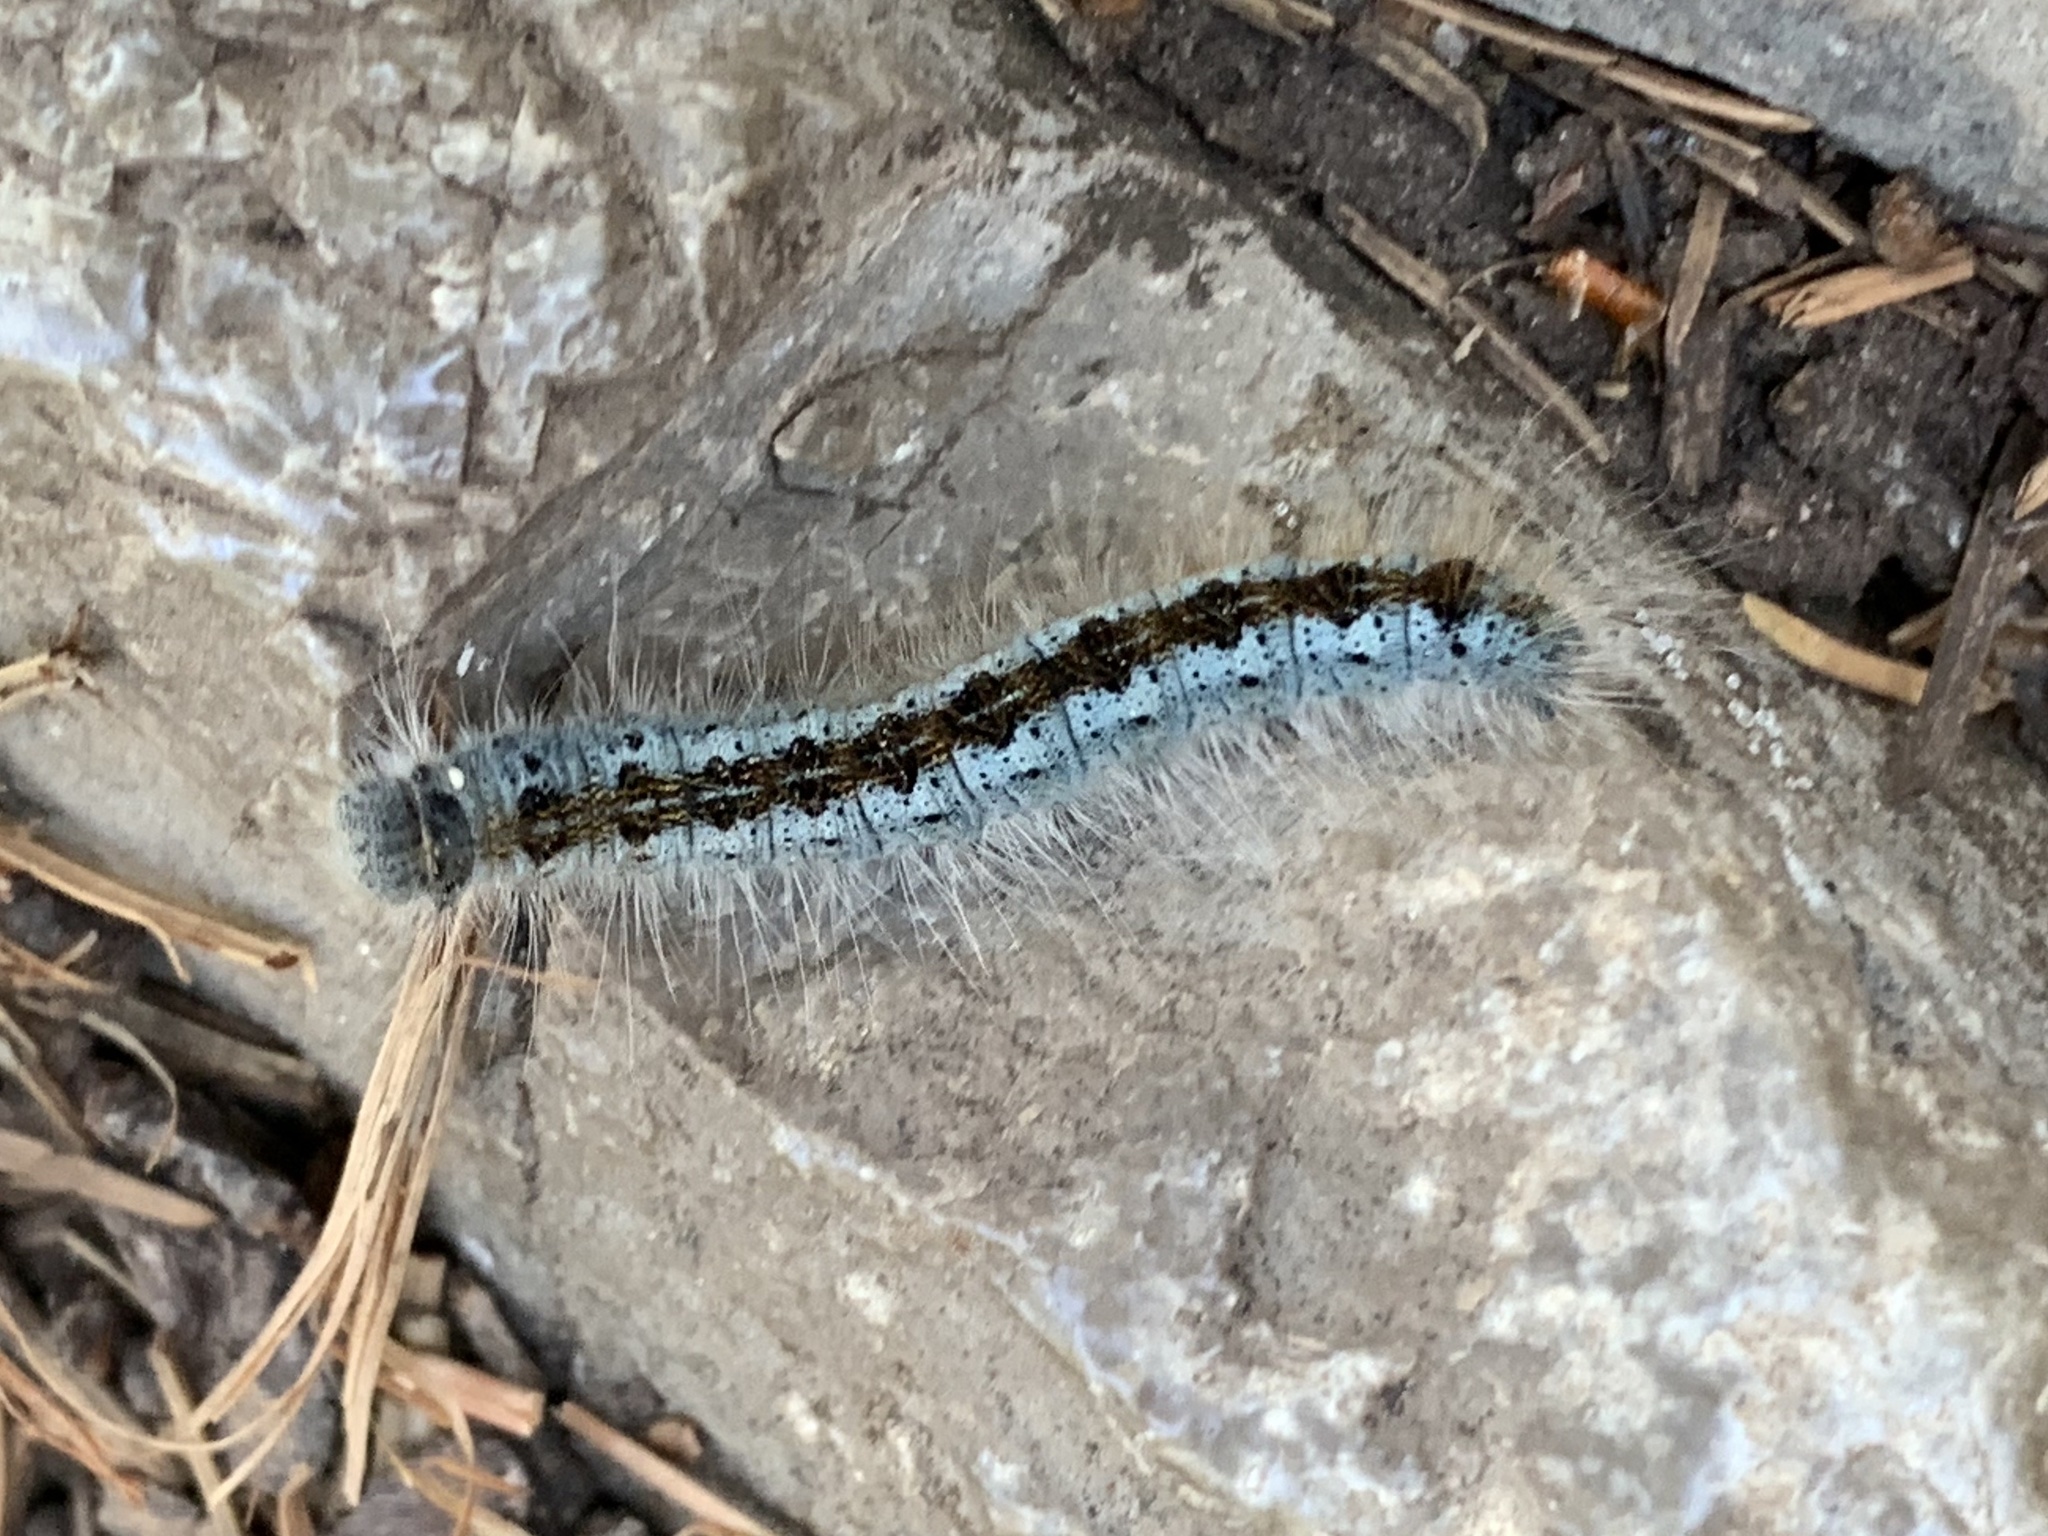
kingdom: Animalia
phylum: Arthropoda
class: Insecta
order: Lepidoptera
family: Lasiocampidae
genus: Malacosoma
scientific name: Malacosoma californica
